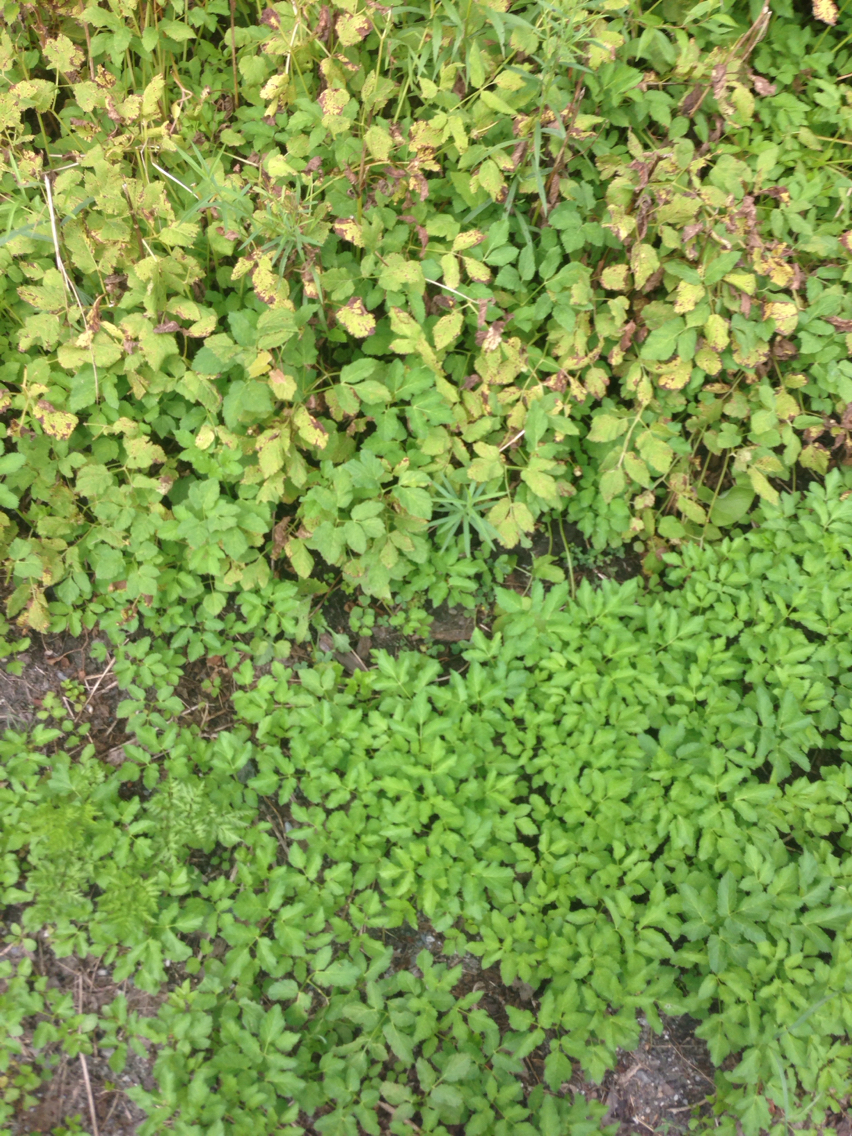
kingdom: Plantae
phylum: Tracheophyta
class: Magnoliopsida
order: Apiales
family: Apiaceae
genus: Aegopodium
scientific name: Aegopodium podagraria
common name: Ground-elder
